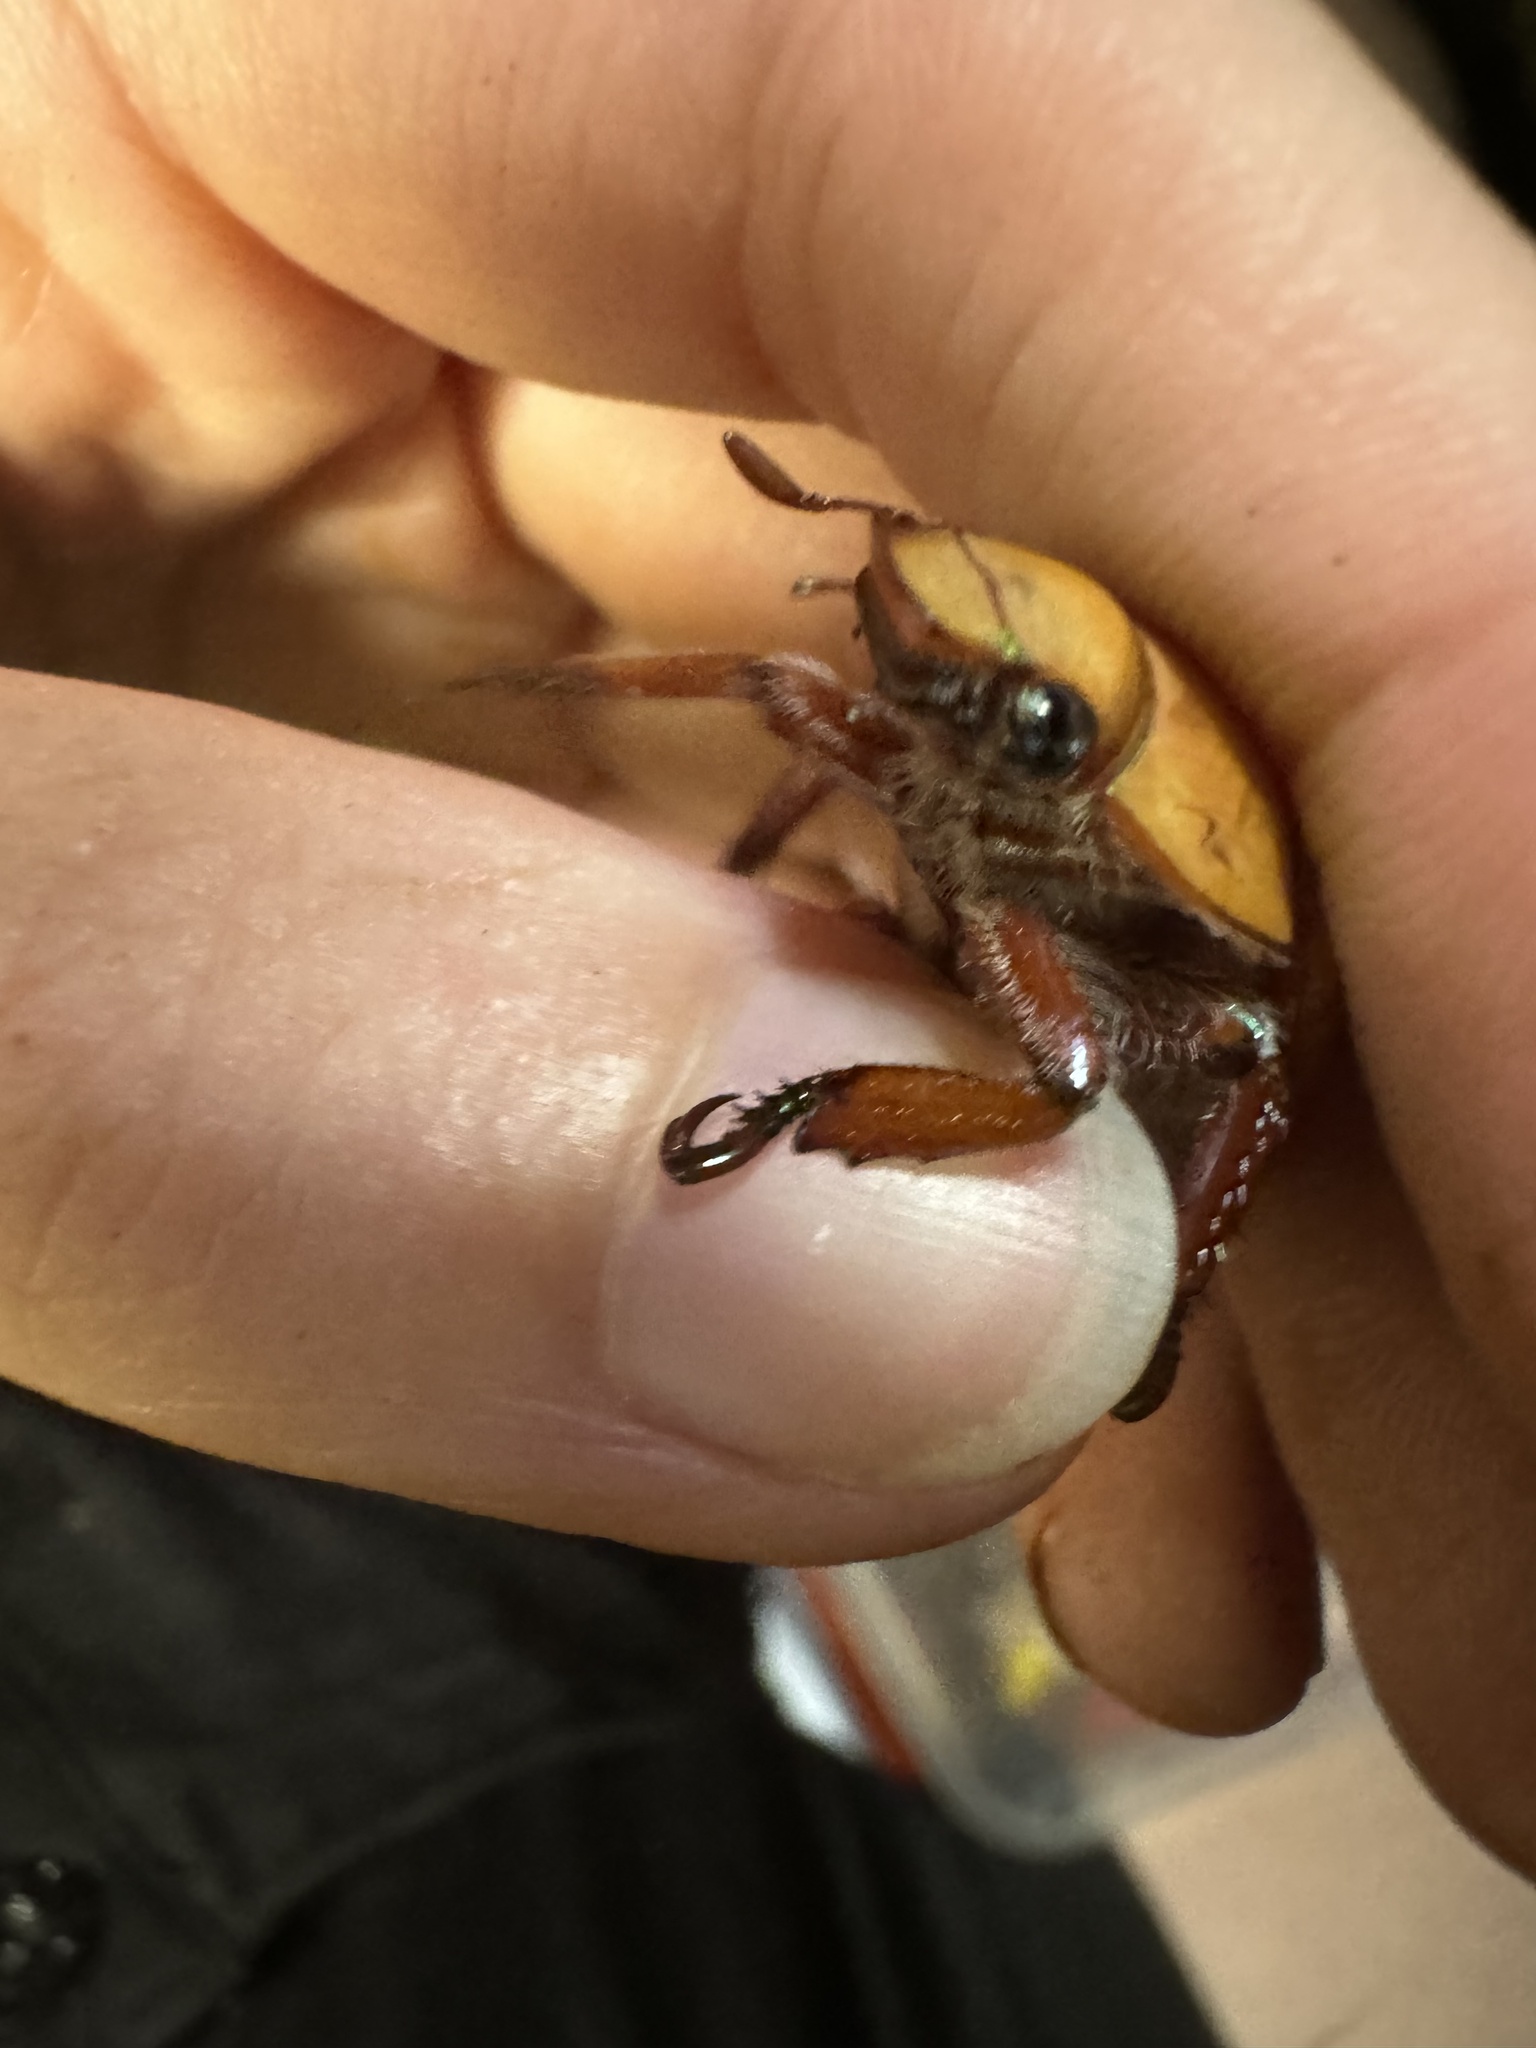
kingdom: Animalia
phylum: Arthropoda
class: Insecta
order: Coleoptera
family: Scarabaeidae
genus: Anoplognathus
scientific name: Anoplognathus olivieri
